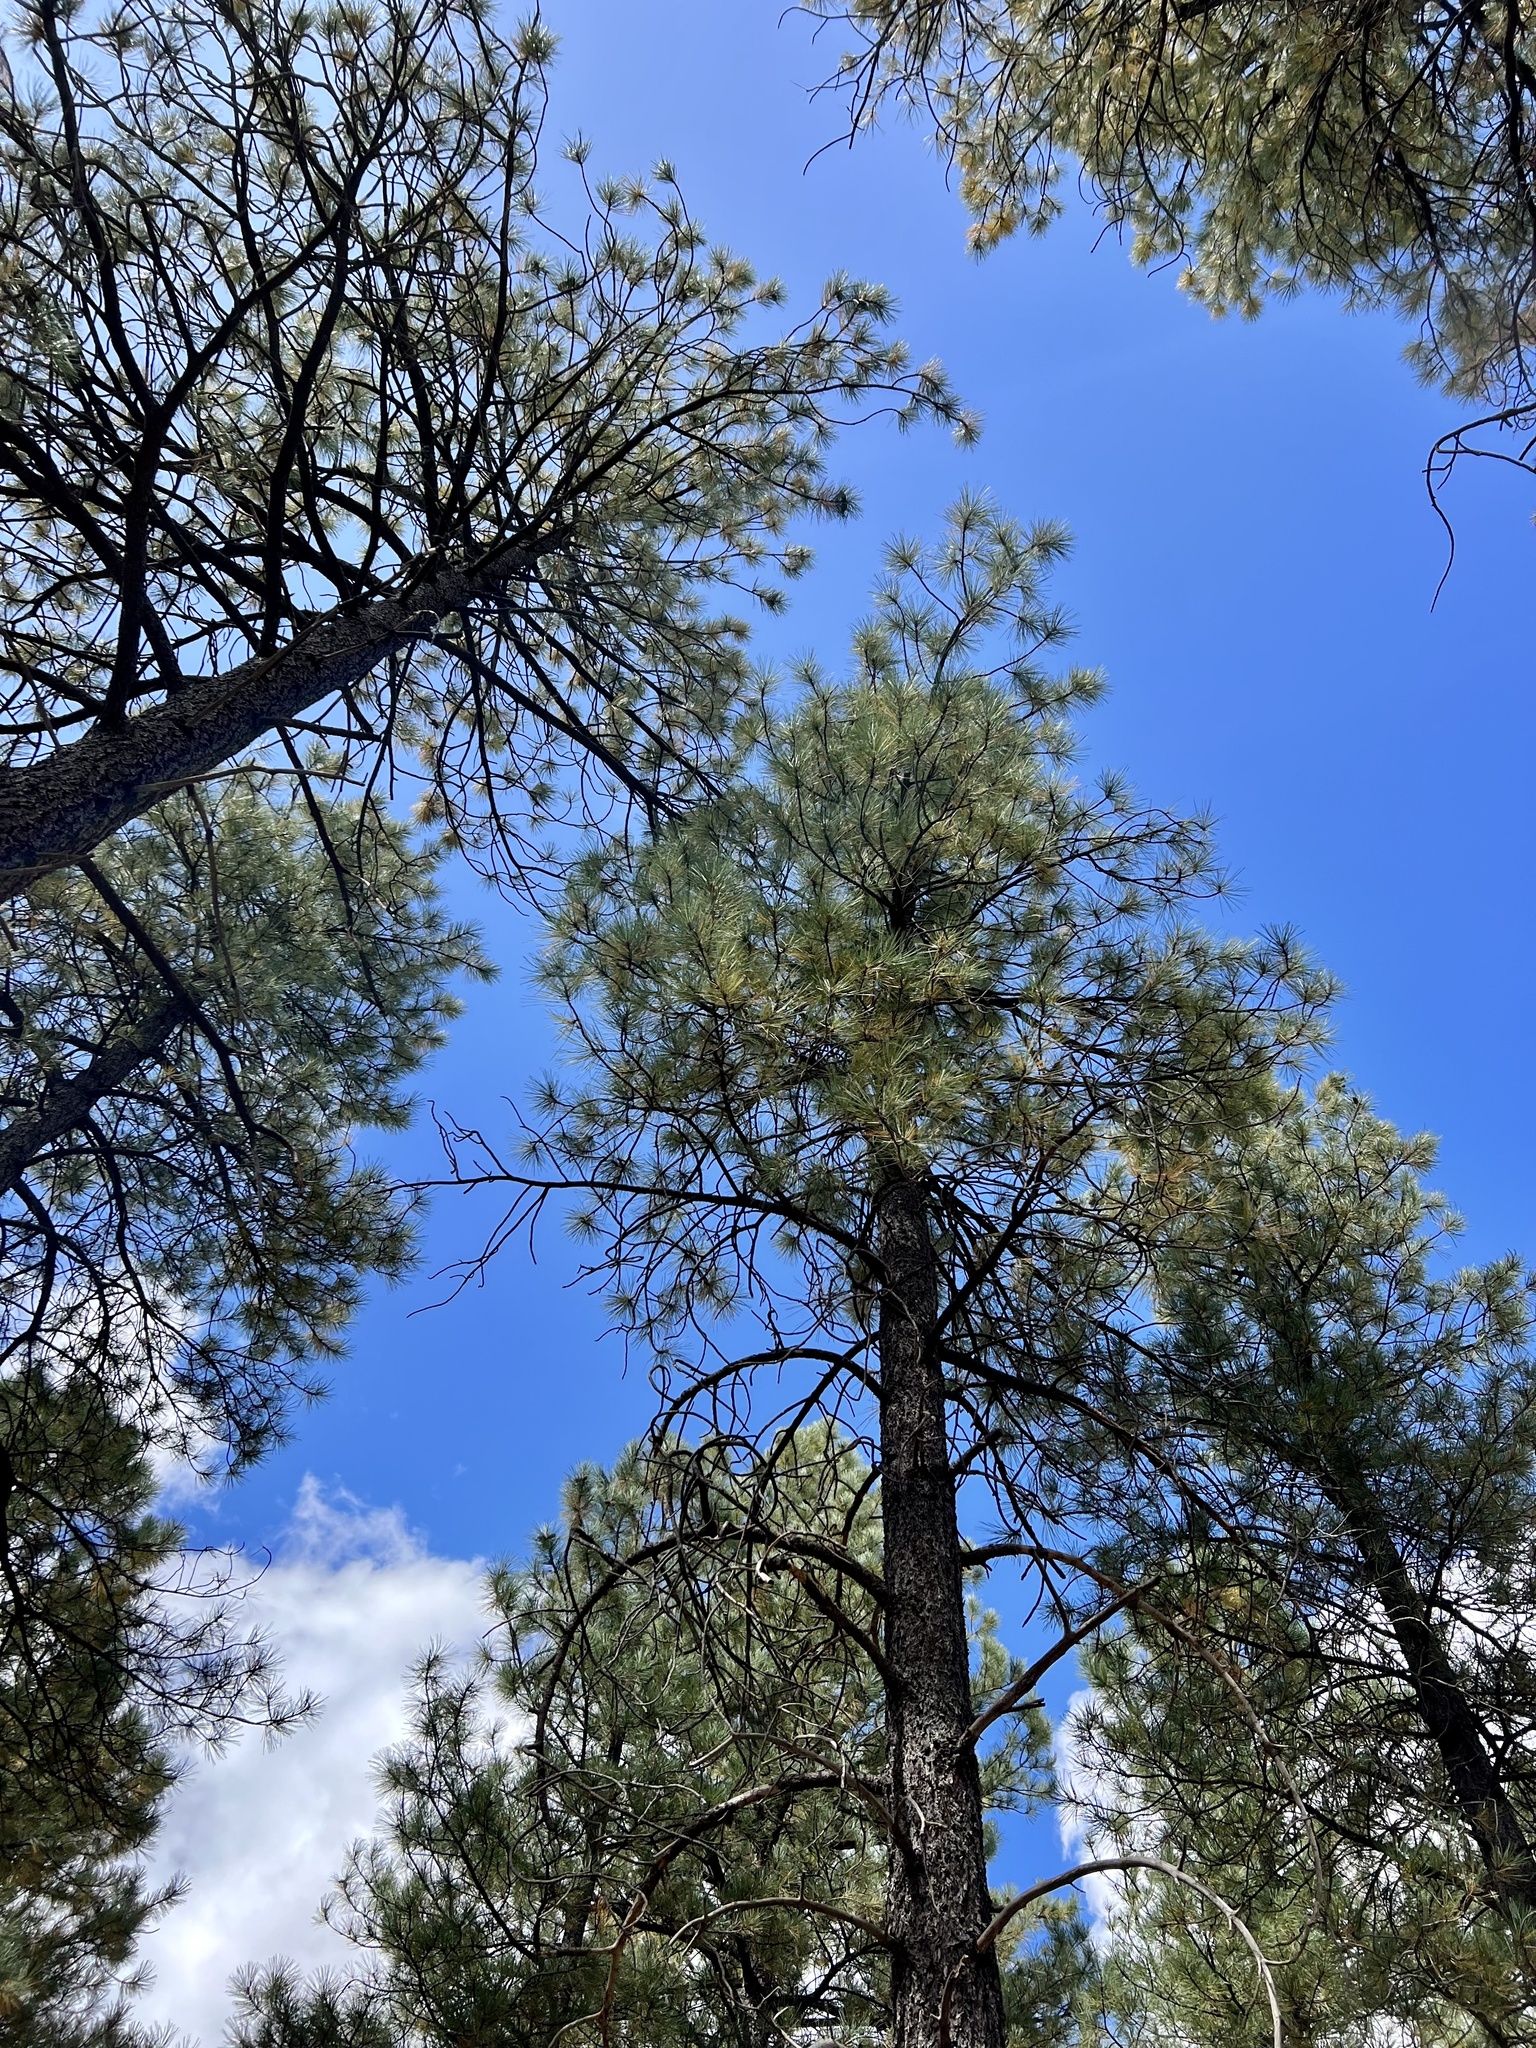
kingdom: Plantae
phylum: Tracheophyta
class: Pinopsida
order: Pinales
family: Pinaceae
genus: Pinus
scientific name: Pinus ponderosa
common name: Western yellow-pine
